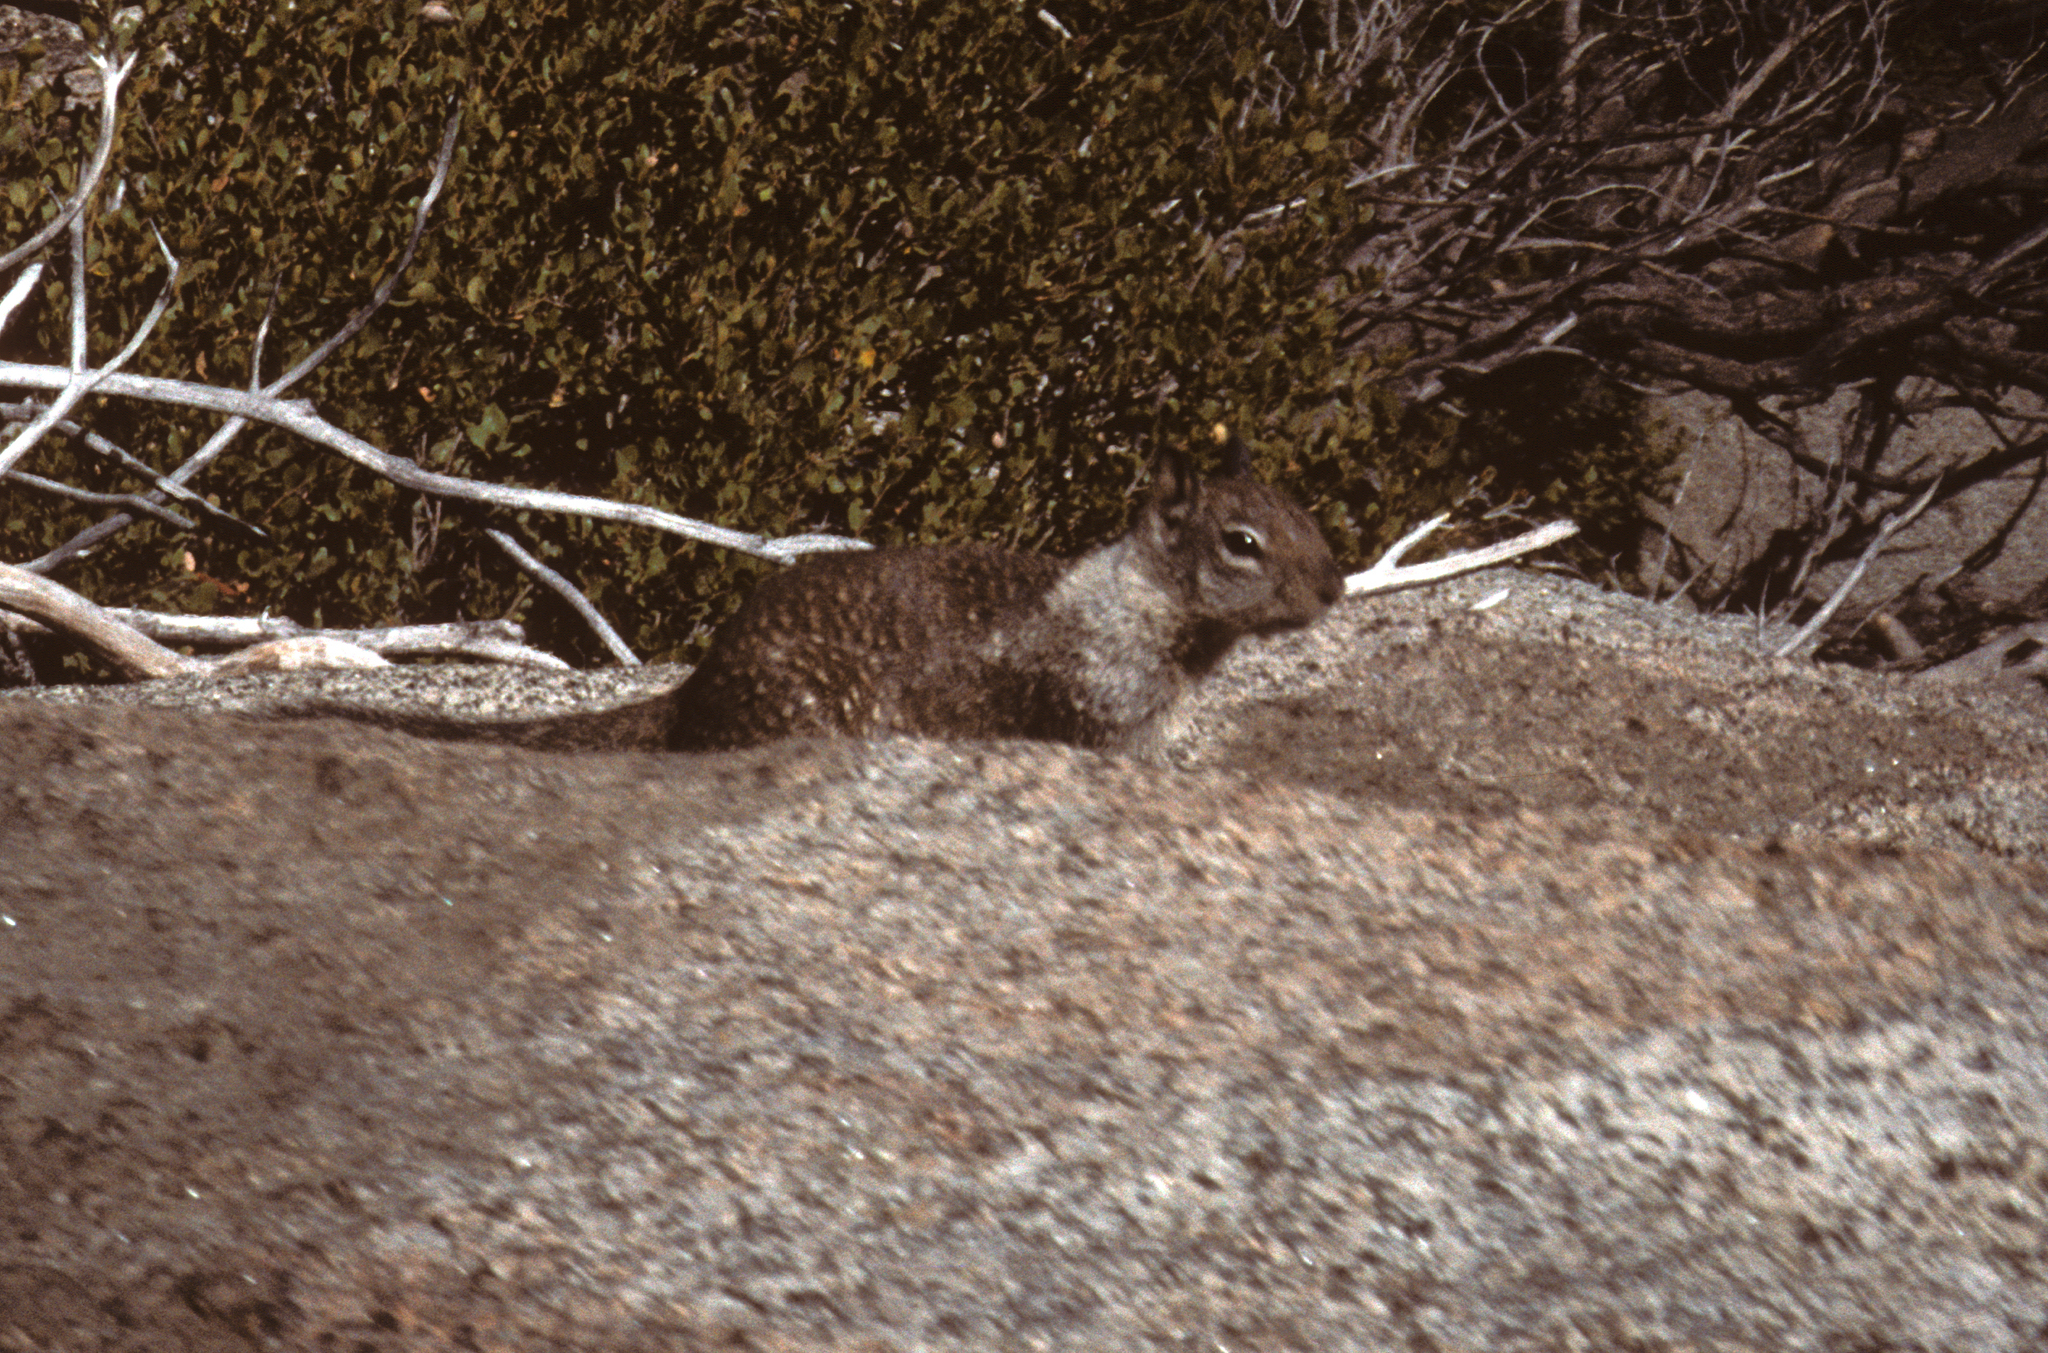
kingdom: Animalia
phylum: Chordata
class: Mammalia
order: Rodentia
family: Sciuridae
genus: Otospermophilus
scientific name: Otospermophilus beecheyi
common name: California ground squirrel
